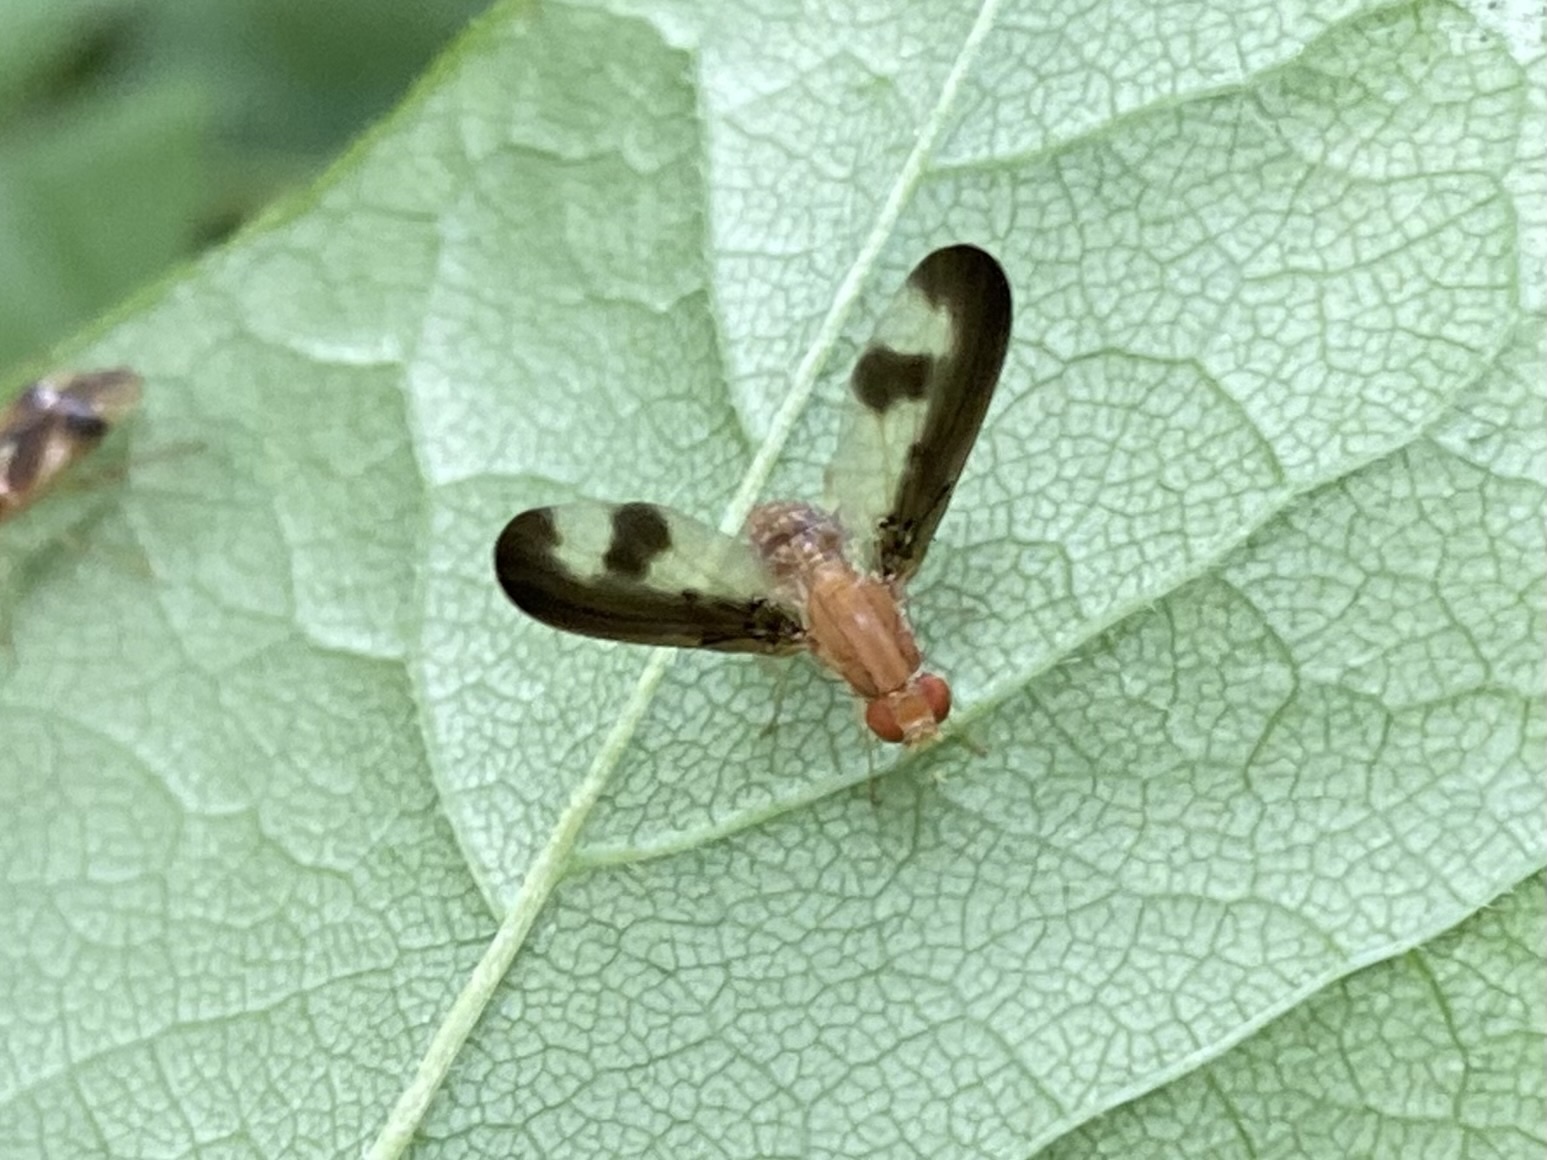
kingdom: Animalia
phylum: Arthropoda
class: Insecta
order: Diptera
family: Pallopteridae
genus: Toxonevra
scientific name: Toxonevra superba
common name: Antlered flutter fly
